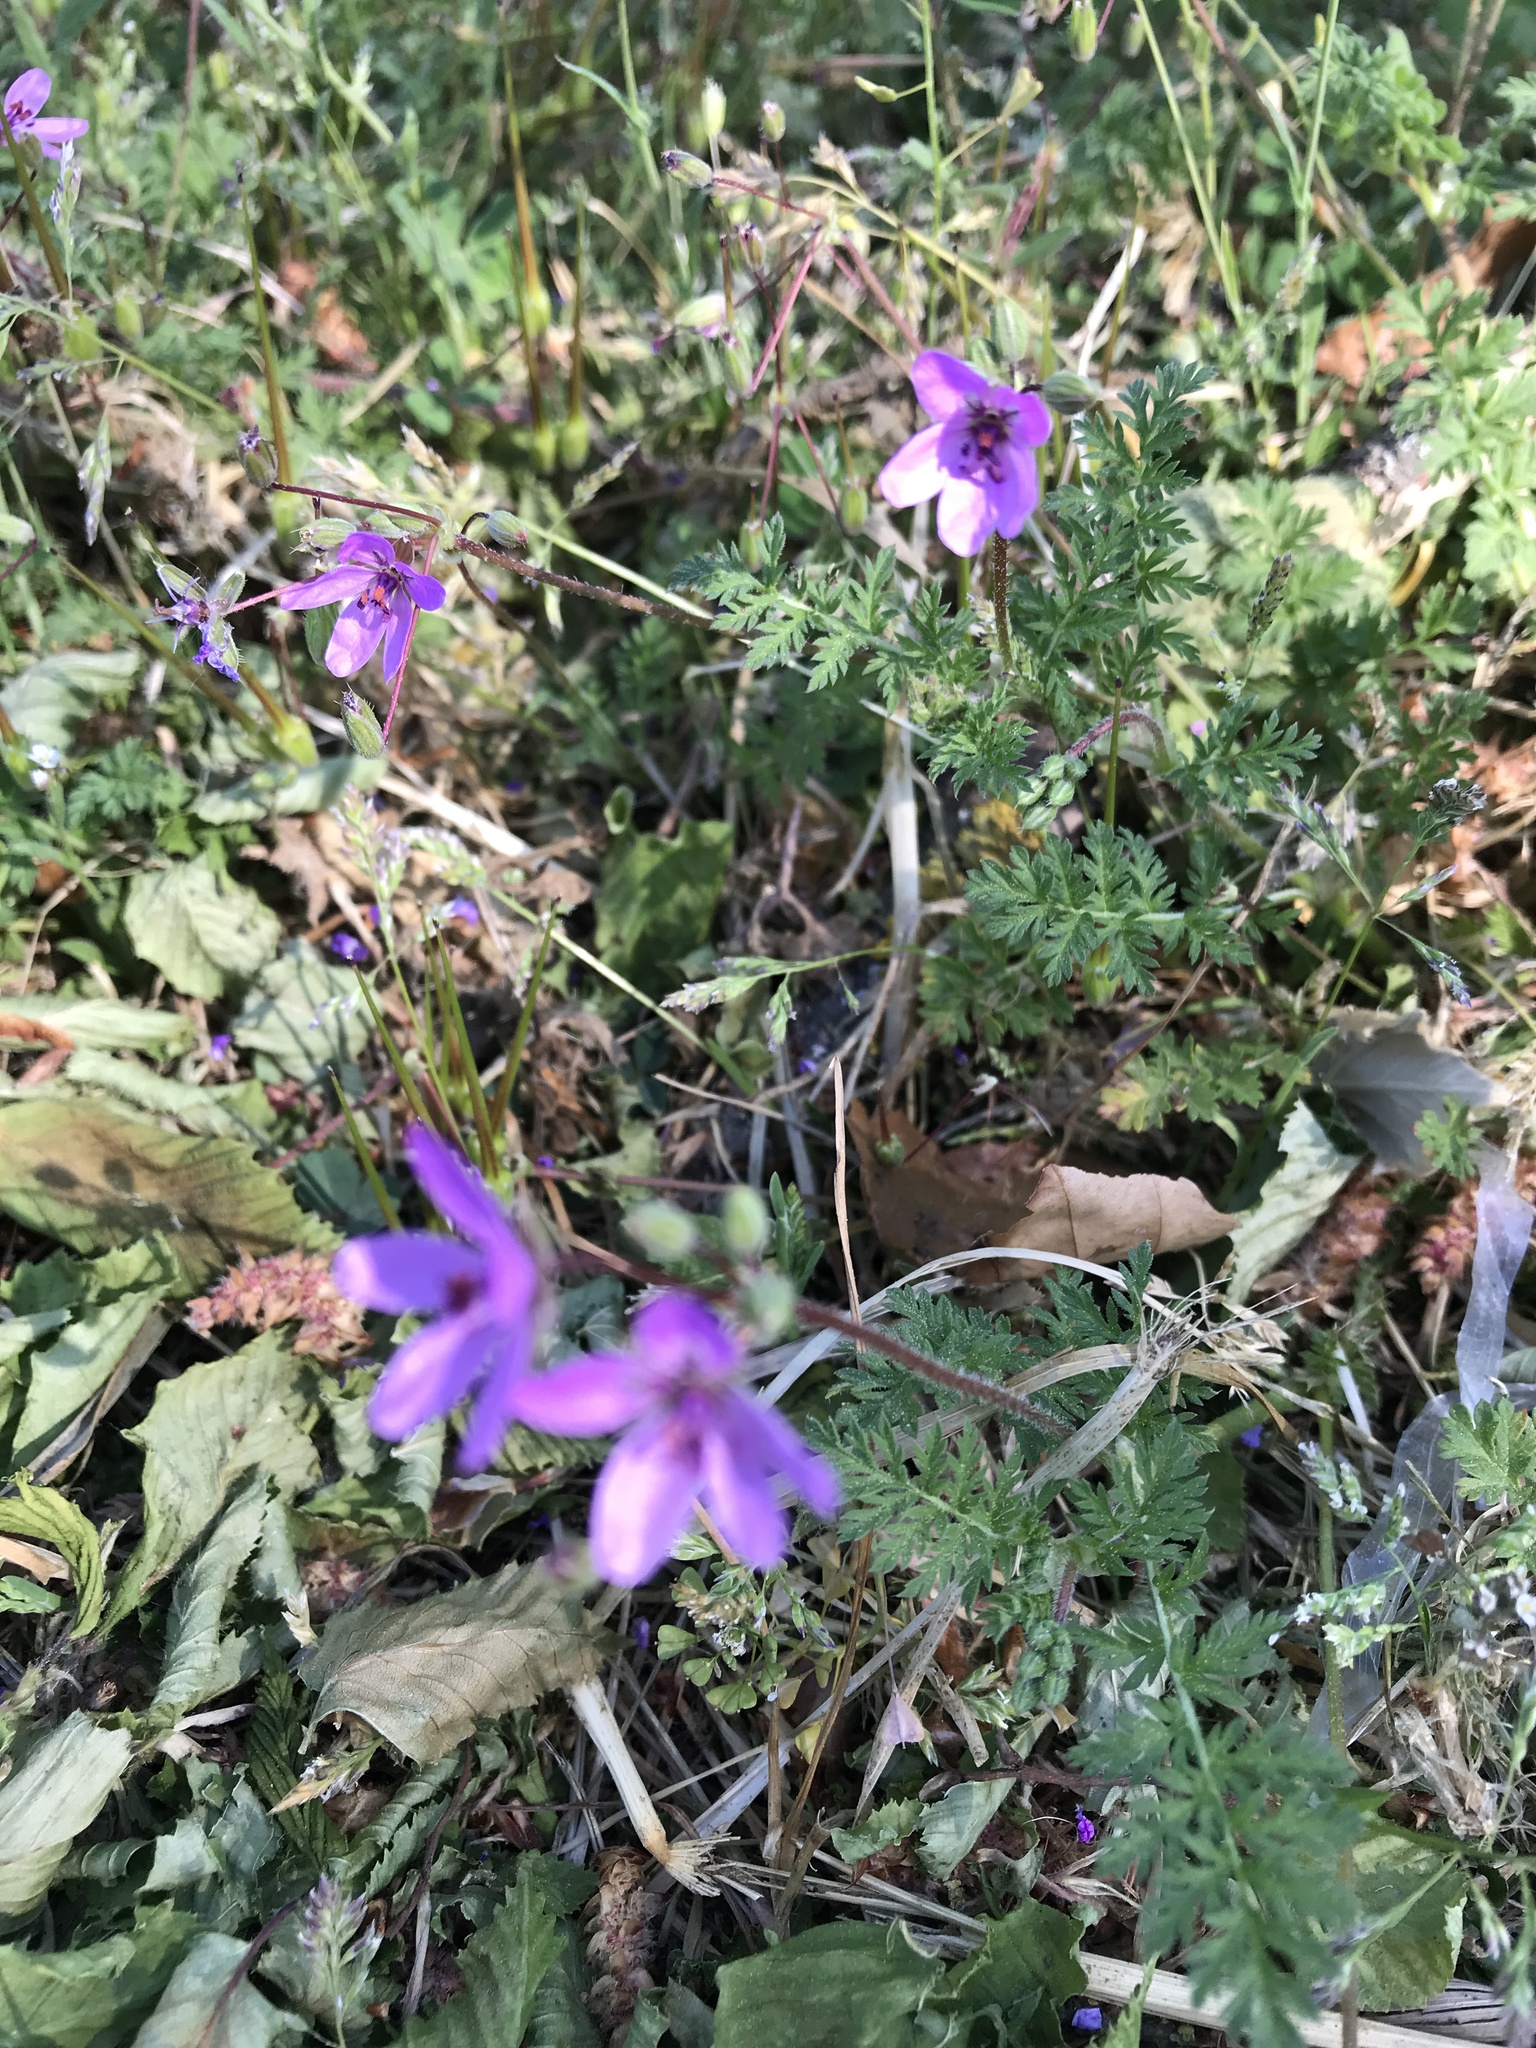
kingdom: Plantae
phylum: Tracheophyta
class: Magnoliopsida
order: Geraniales
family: Geraniaceae
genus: Erodium
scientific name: Erodium cicutarium
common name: Common stork's-bill
